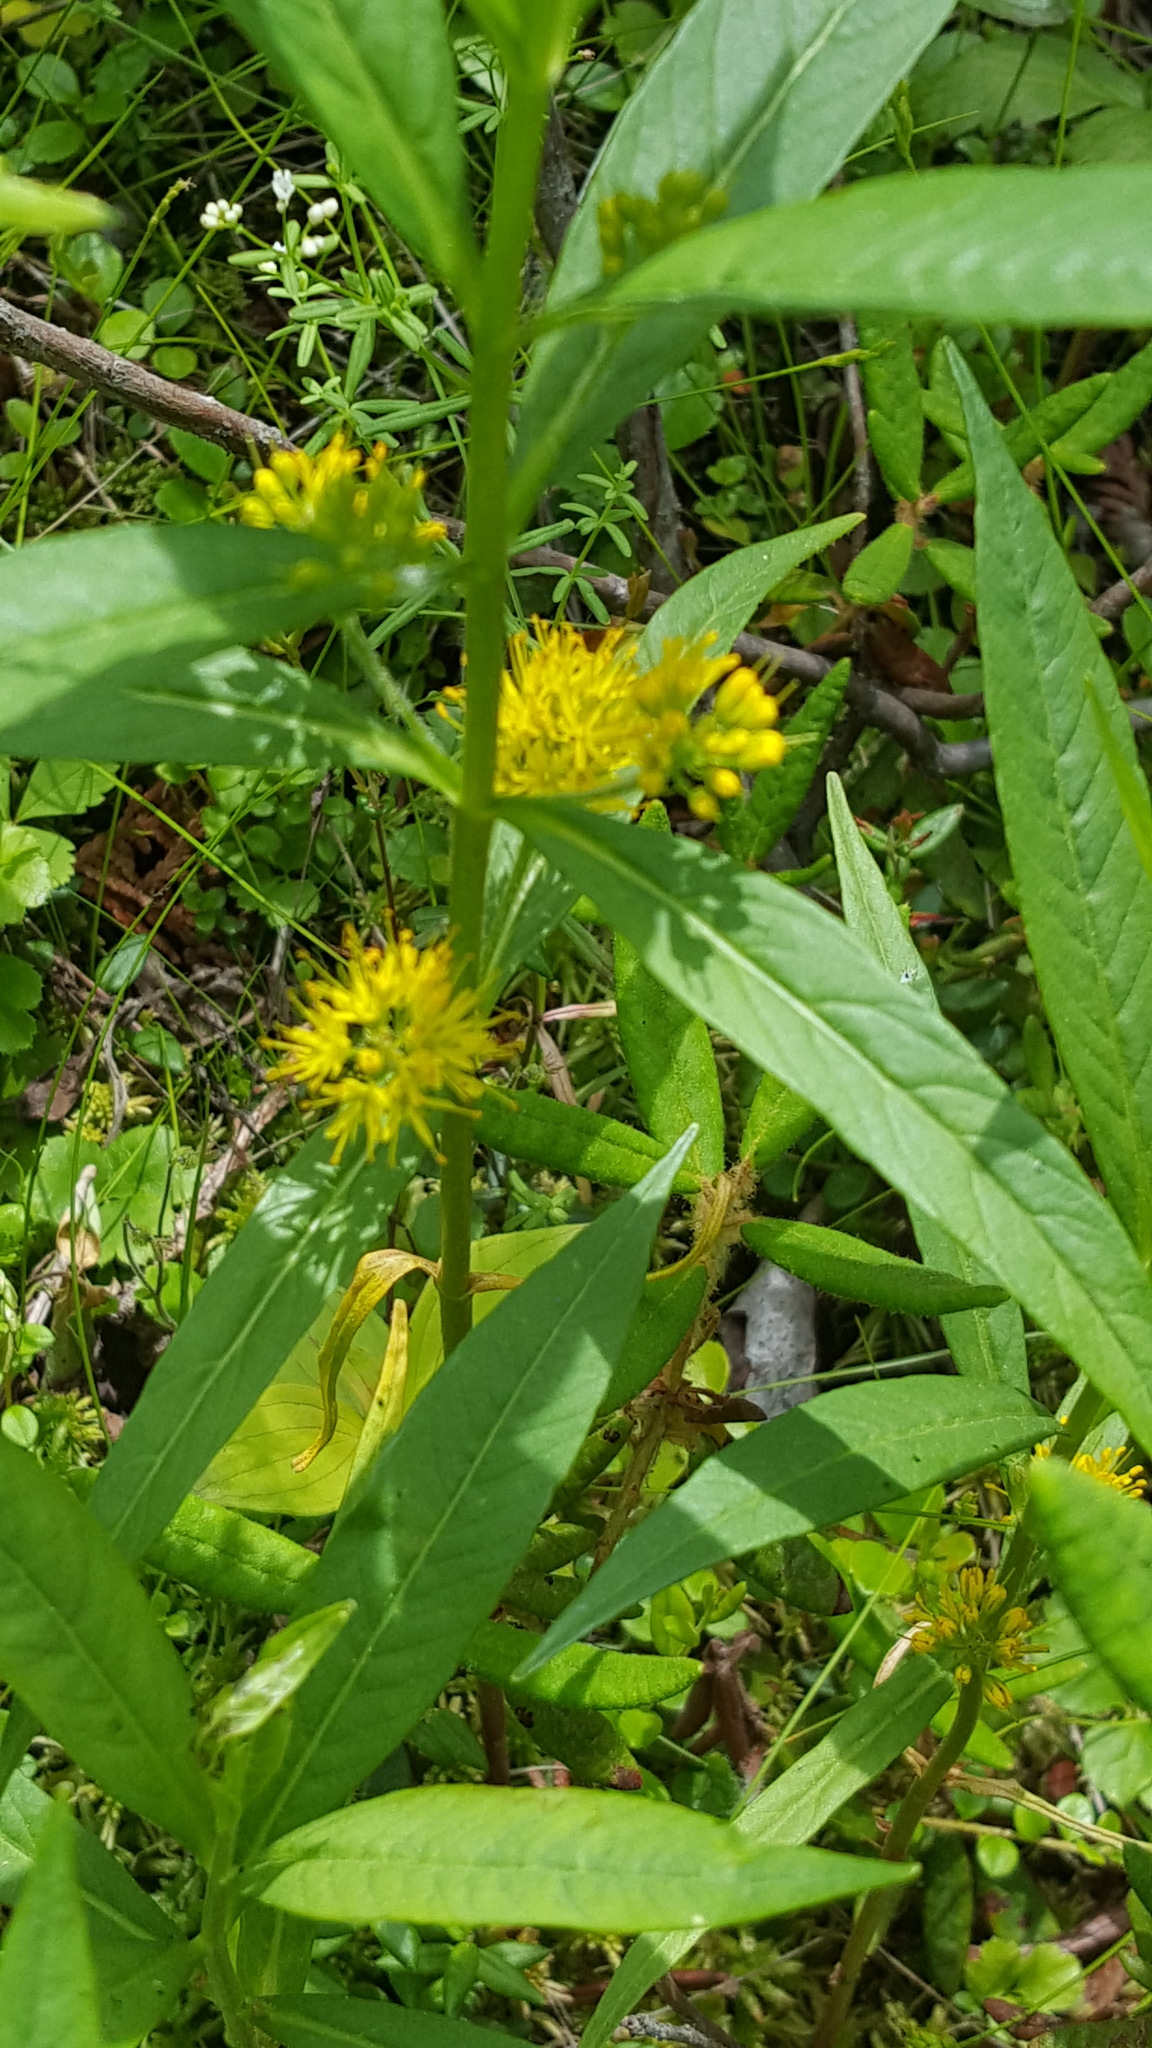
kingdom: Plantae
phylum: Tracheophyta
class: Magnoliopsida
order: Ericales
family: Primulaceae
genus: Lysimachia
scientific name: Lysimachia thyrsiflora
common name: Tufted loosestrife
